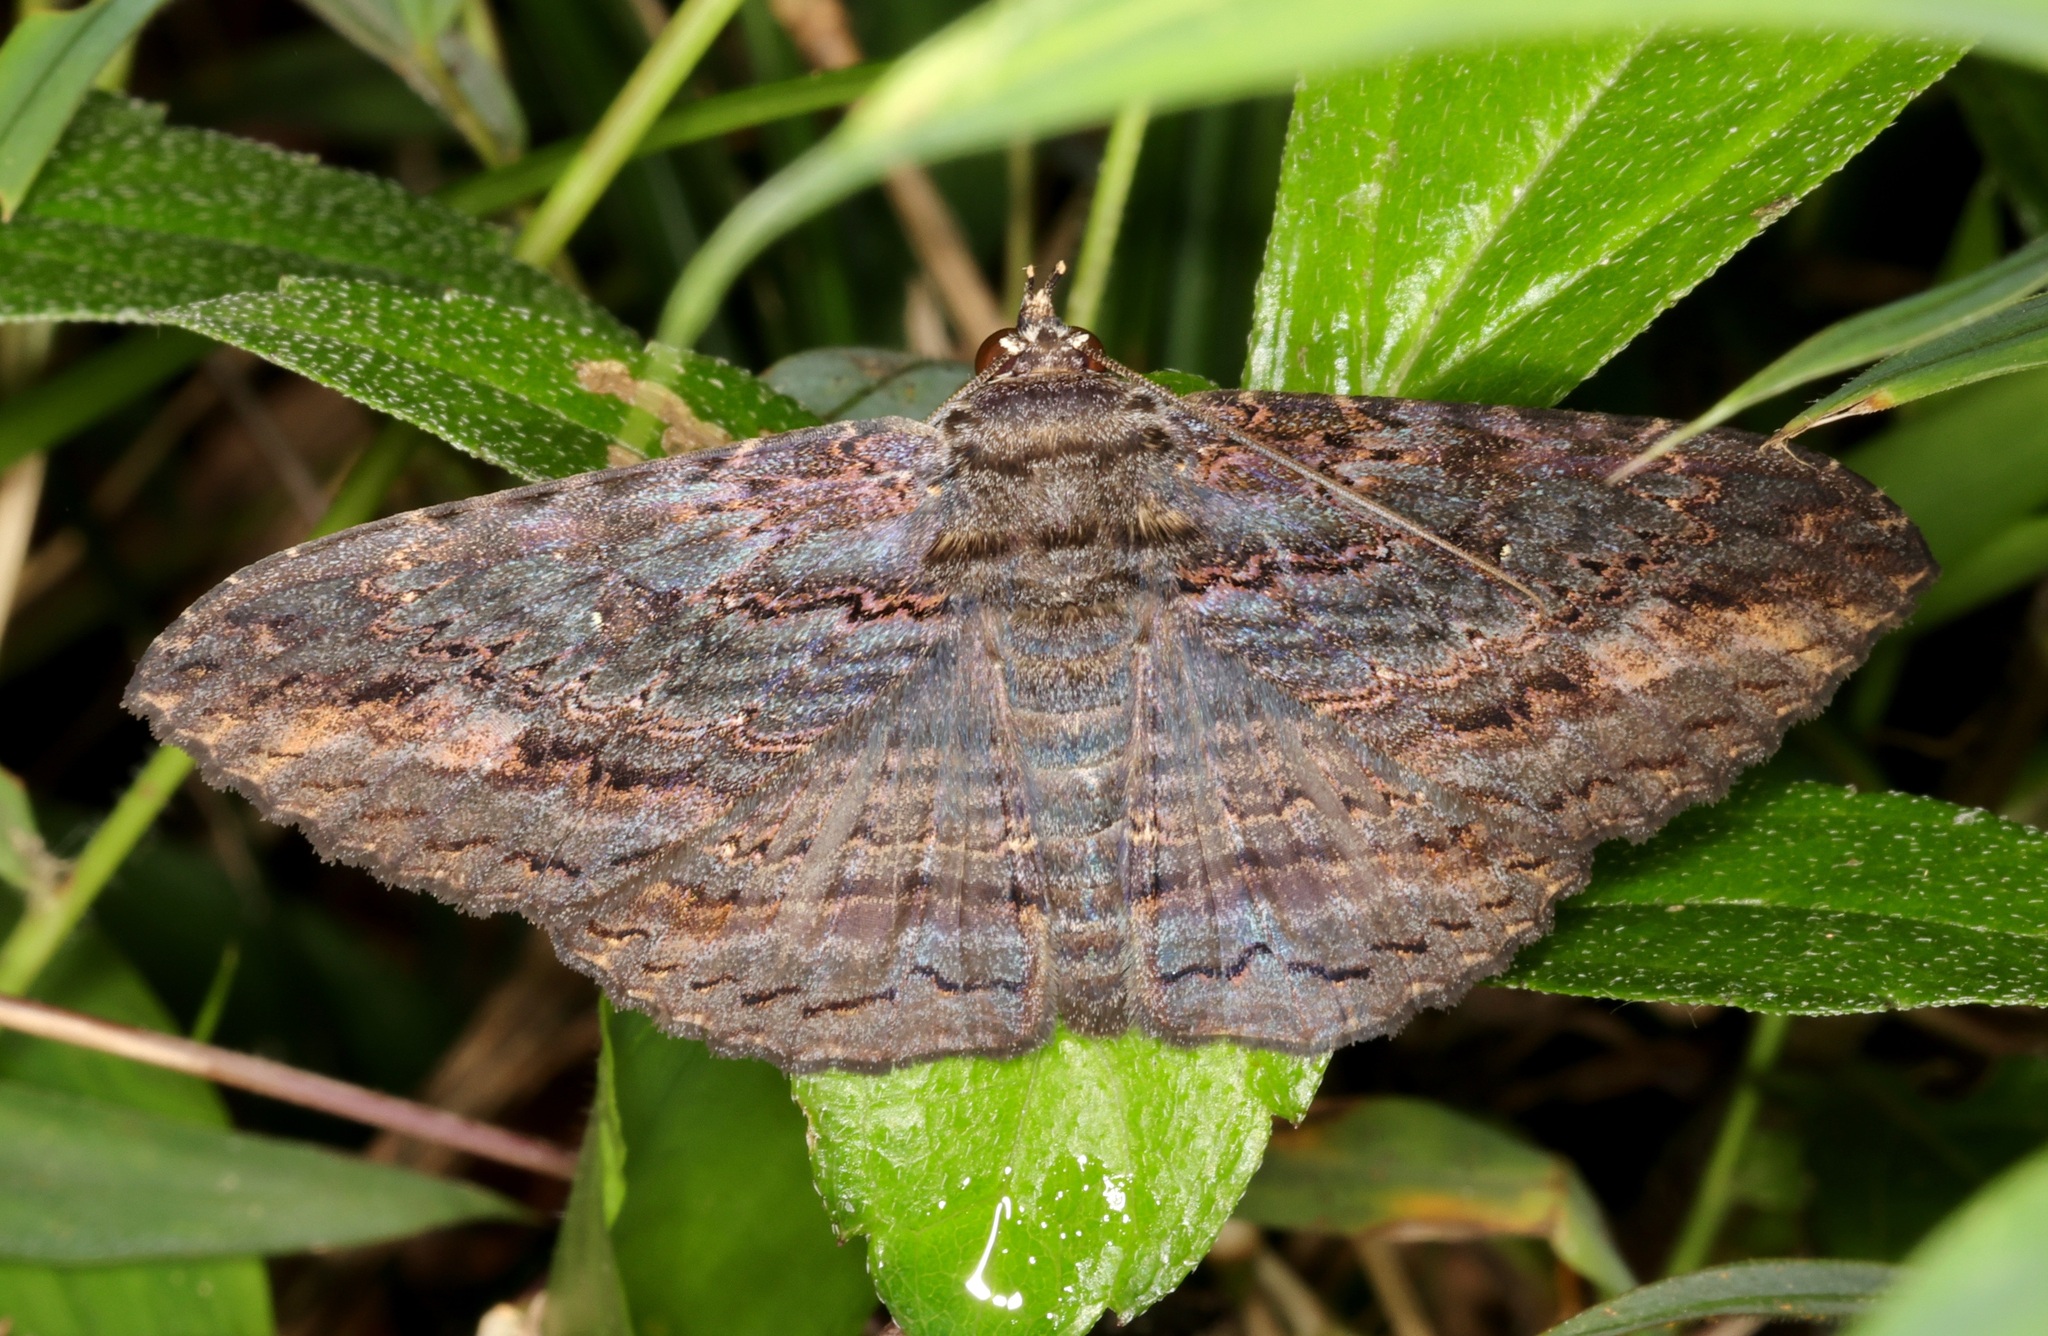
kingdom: Animalia
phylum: Arthropoda
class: Insecta
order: Lepidoptera
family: Erebidae
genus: Anisoneura
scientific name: Anisoneura salebrosa
